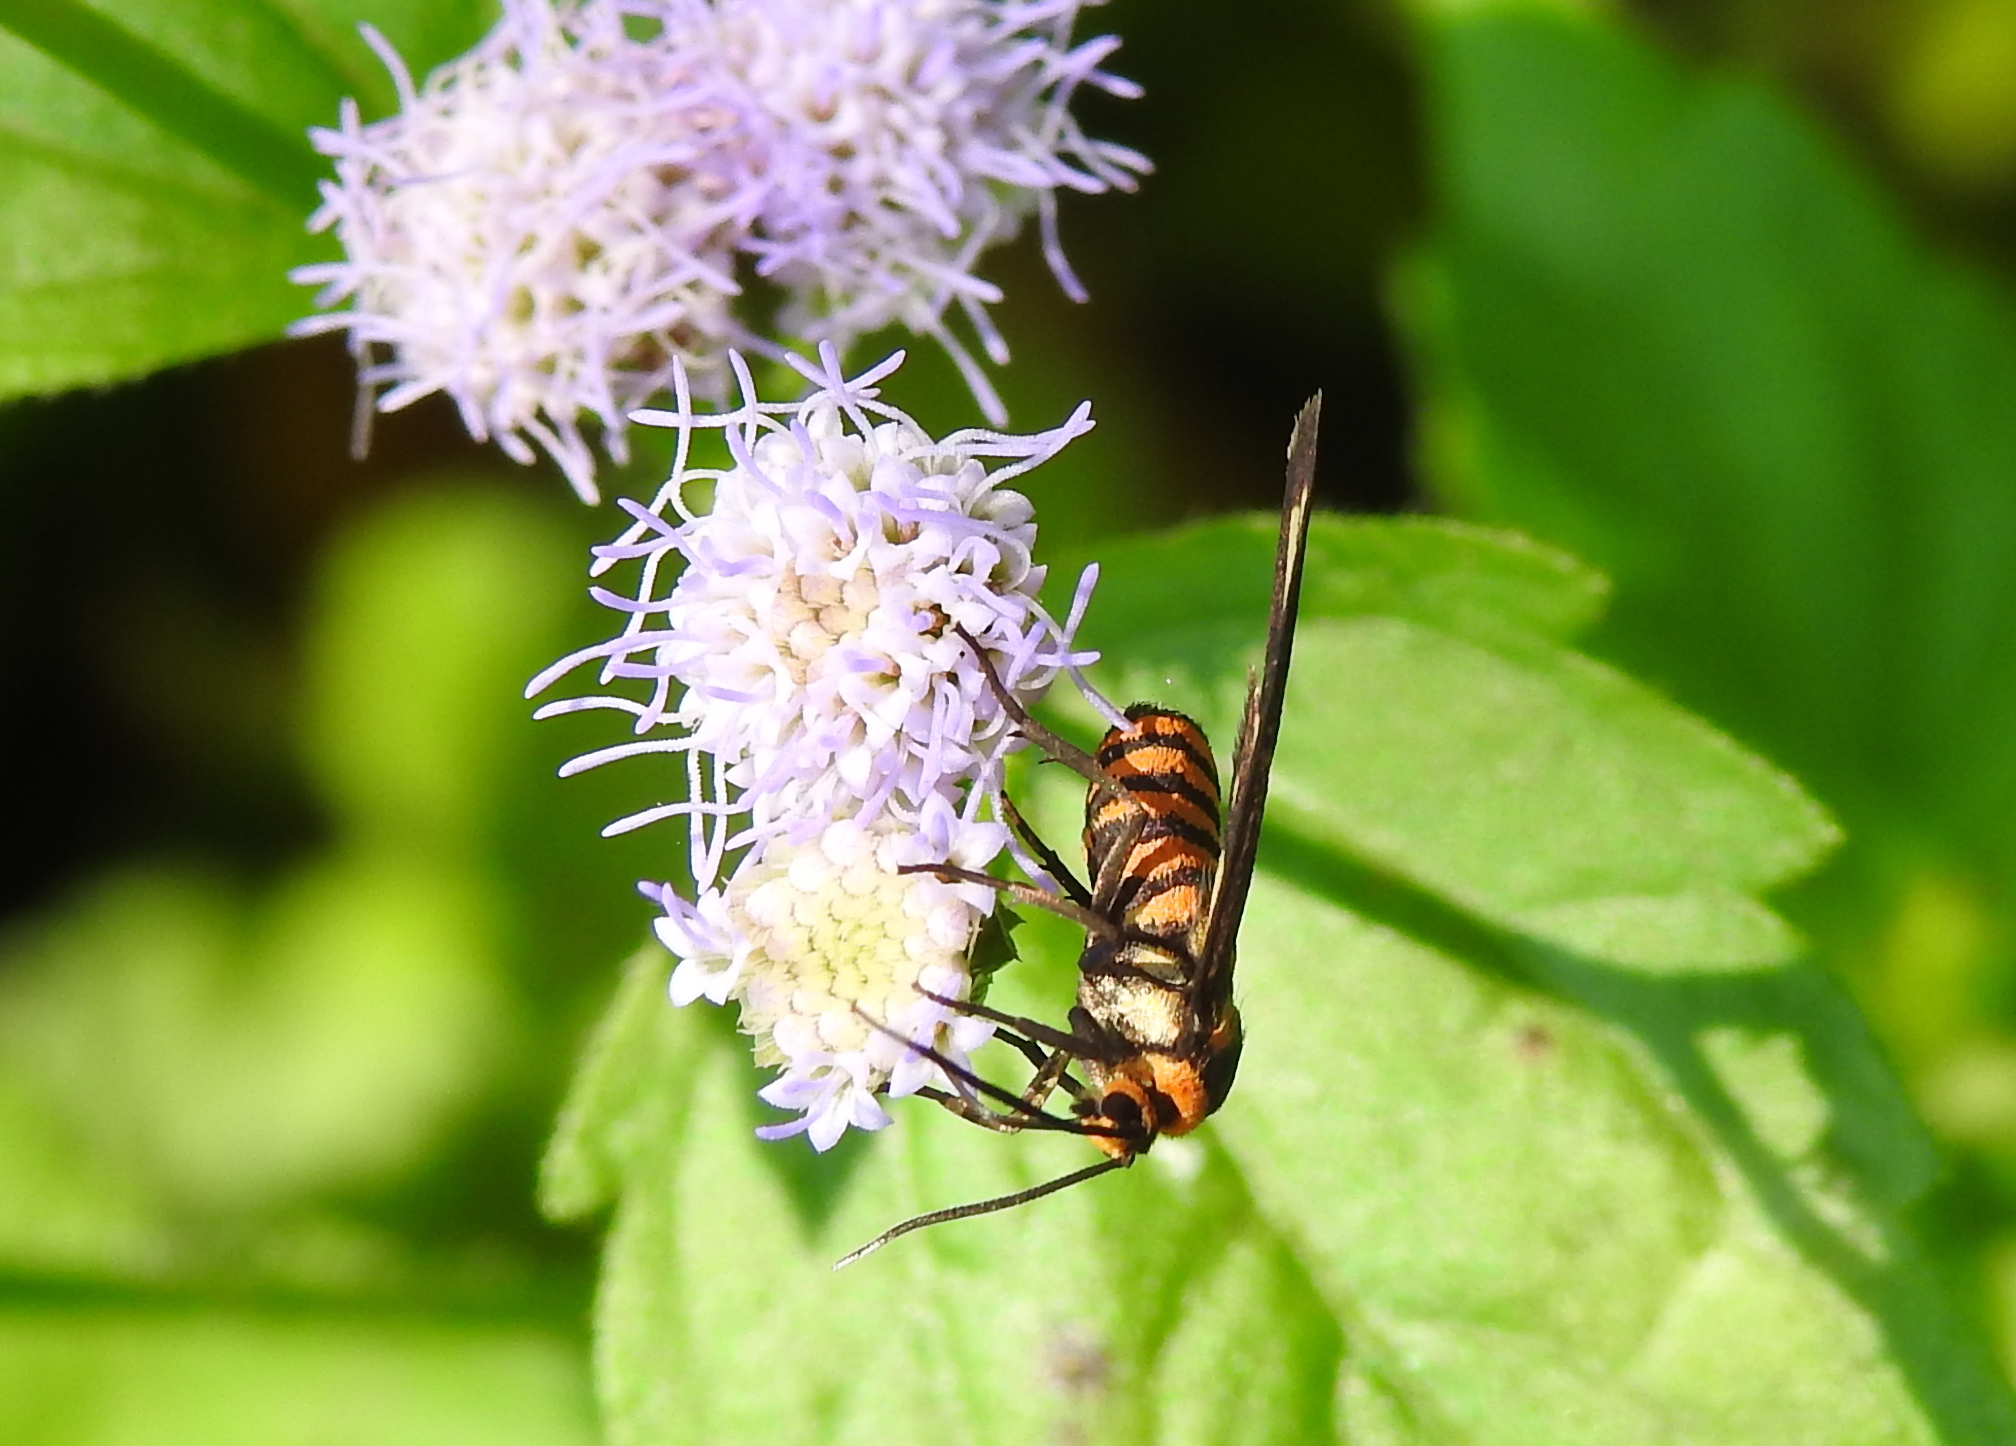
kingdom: Animalia
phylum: Arthropoda
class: Insecta
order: Lepidoptera
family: Erebidae
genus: Amata
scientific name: Amata huebneri
